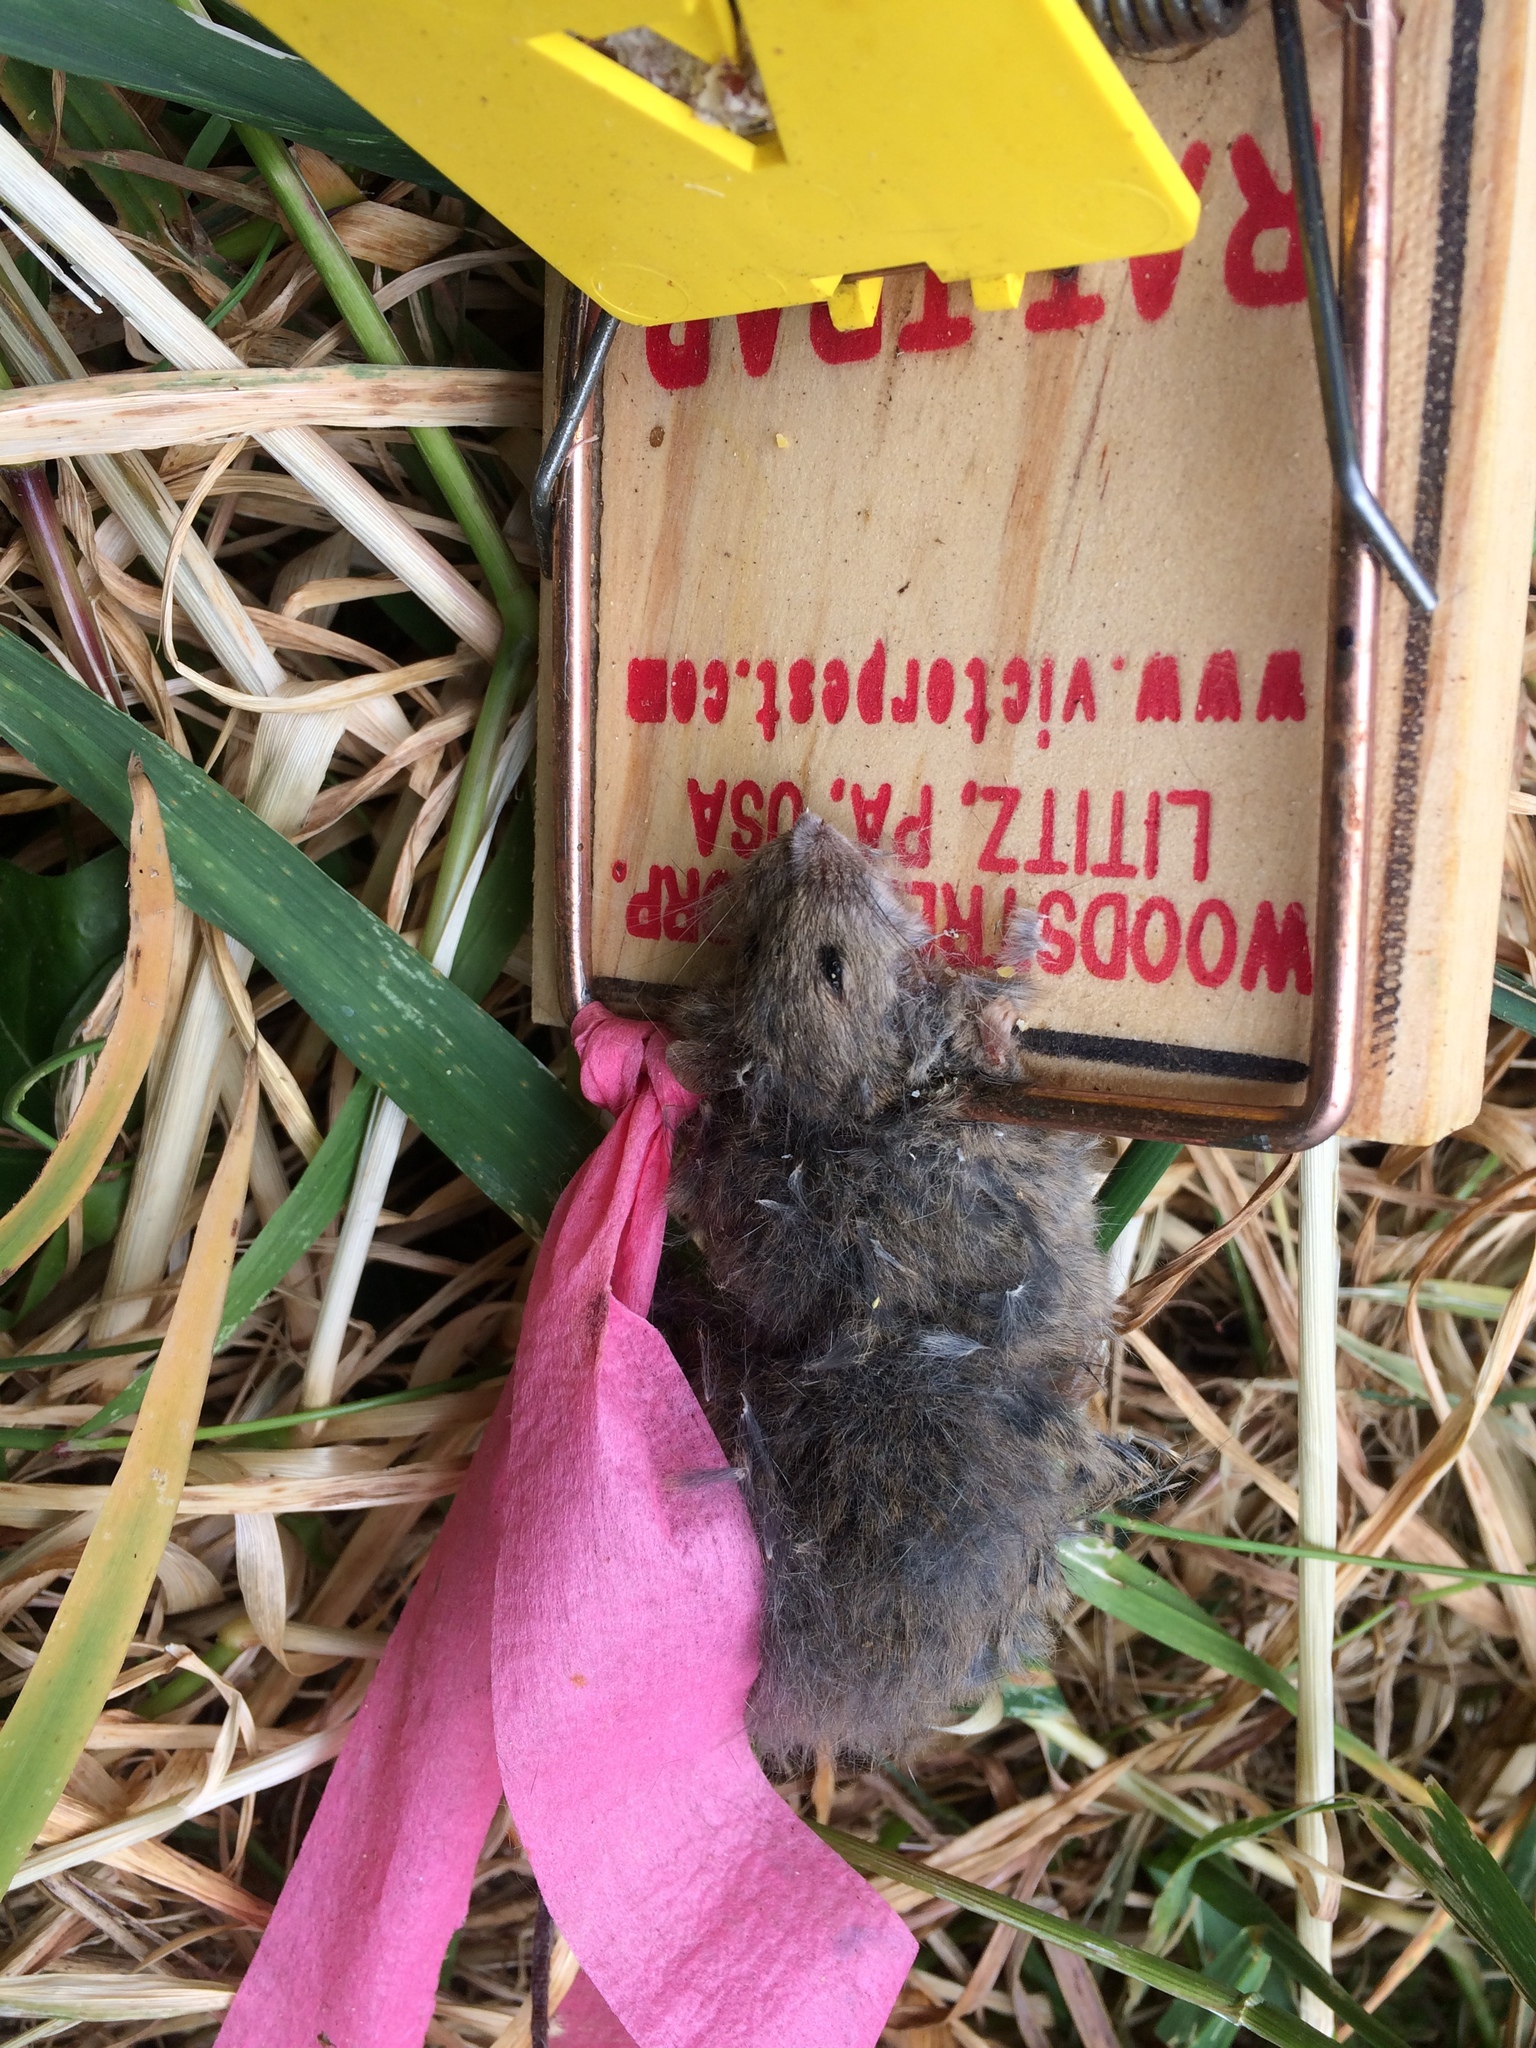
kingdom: Animalia
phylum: Chordata
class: Mammalia
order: Rodentia
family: Muridae
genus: Mus
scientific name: Mus musculus
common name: House mouse
